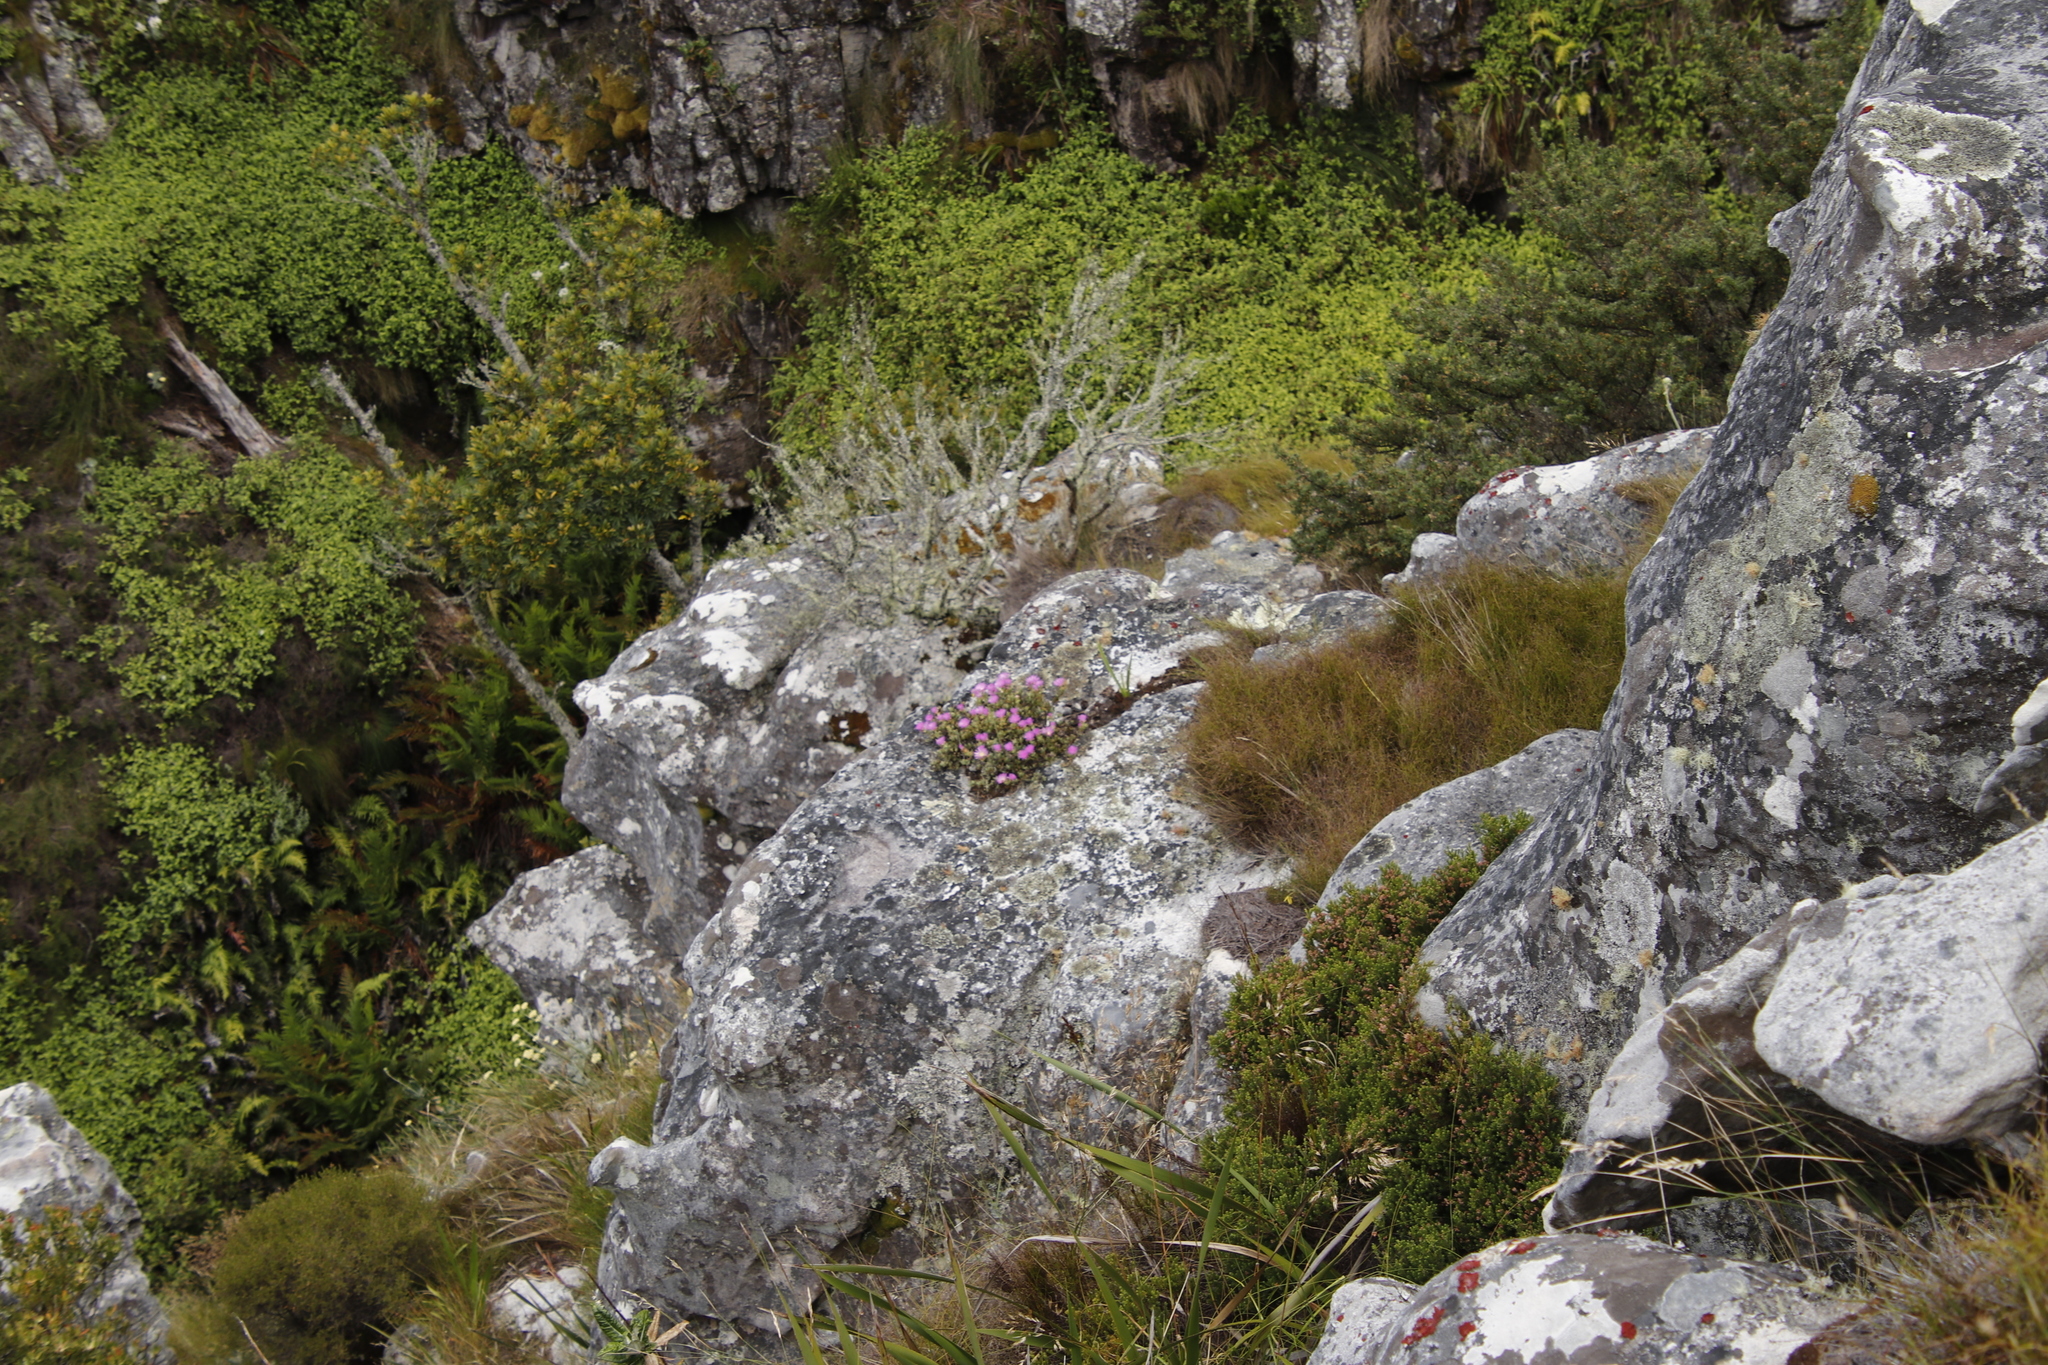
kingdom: Plantae
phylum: Tracheophyta
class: Magnoliopsida
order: Caryophyllales
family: Aizoaceae
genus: Oscularia
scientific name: Oscularia falciformis
